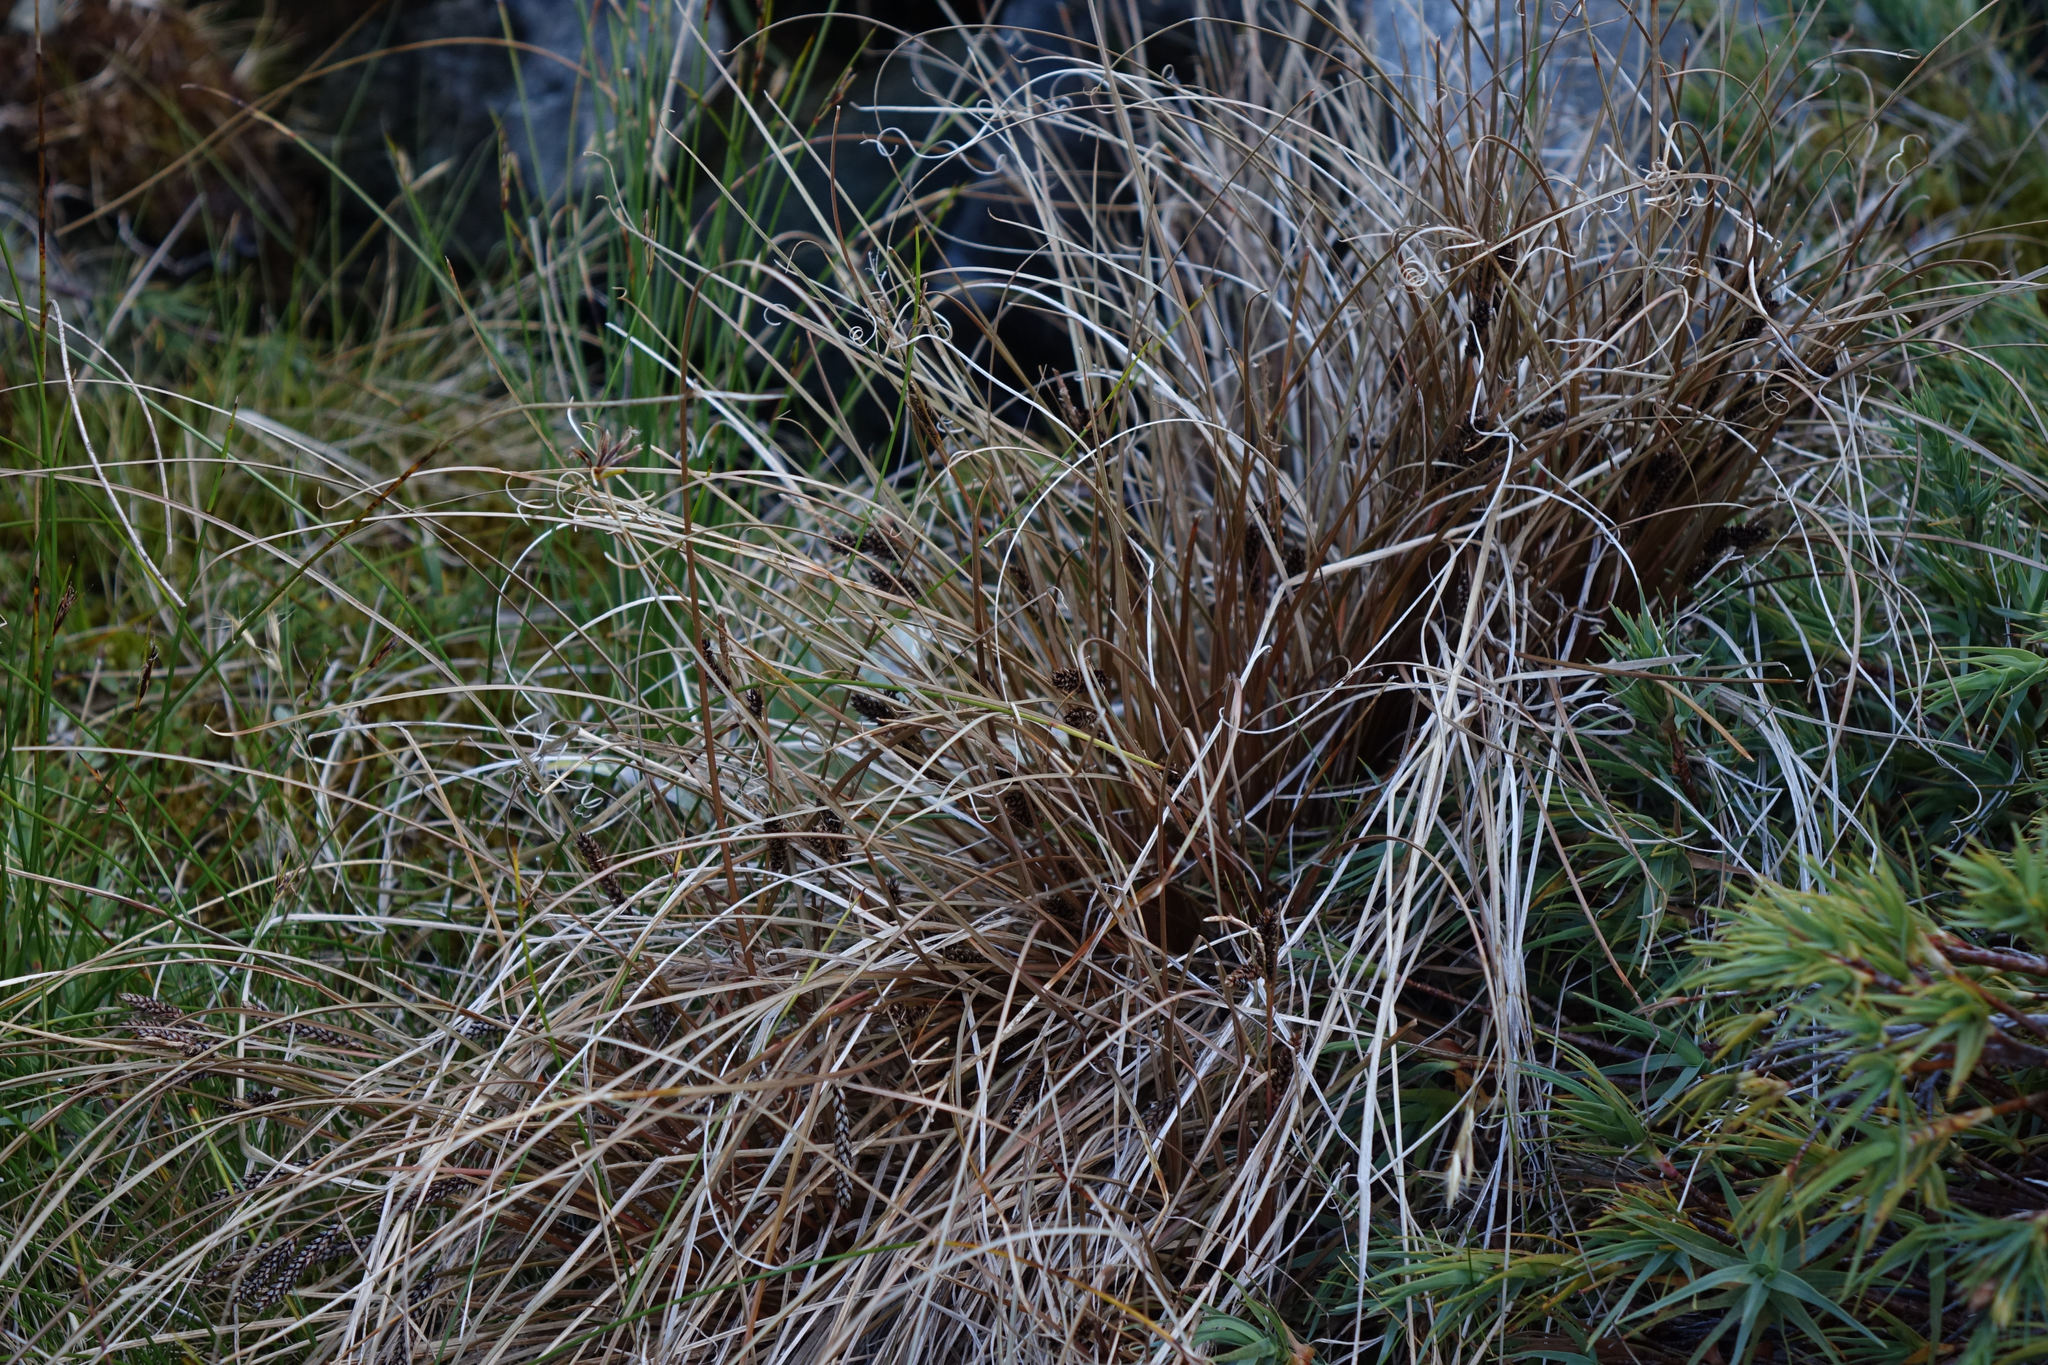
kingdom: Plantae
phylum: Tracheophyta
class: Liliopsida
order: Poales
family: Cyperaceae
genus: Carex
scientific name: Carex petriei
